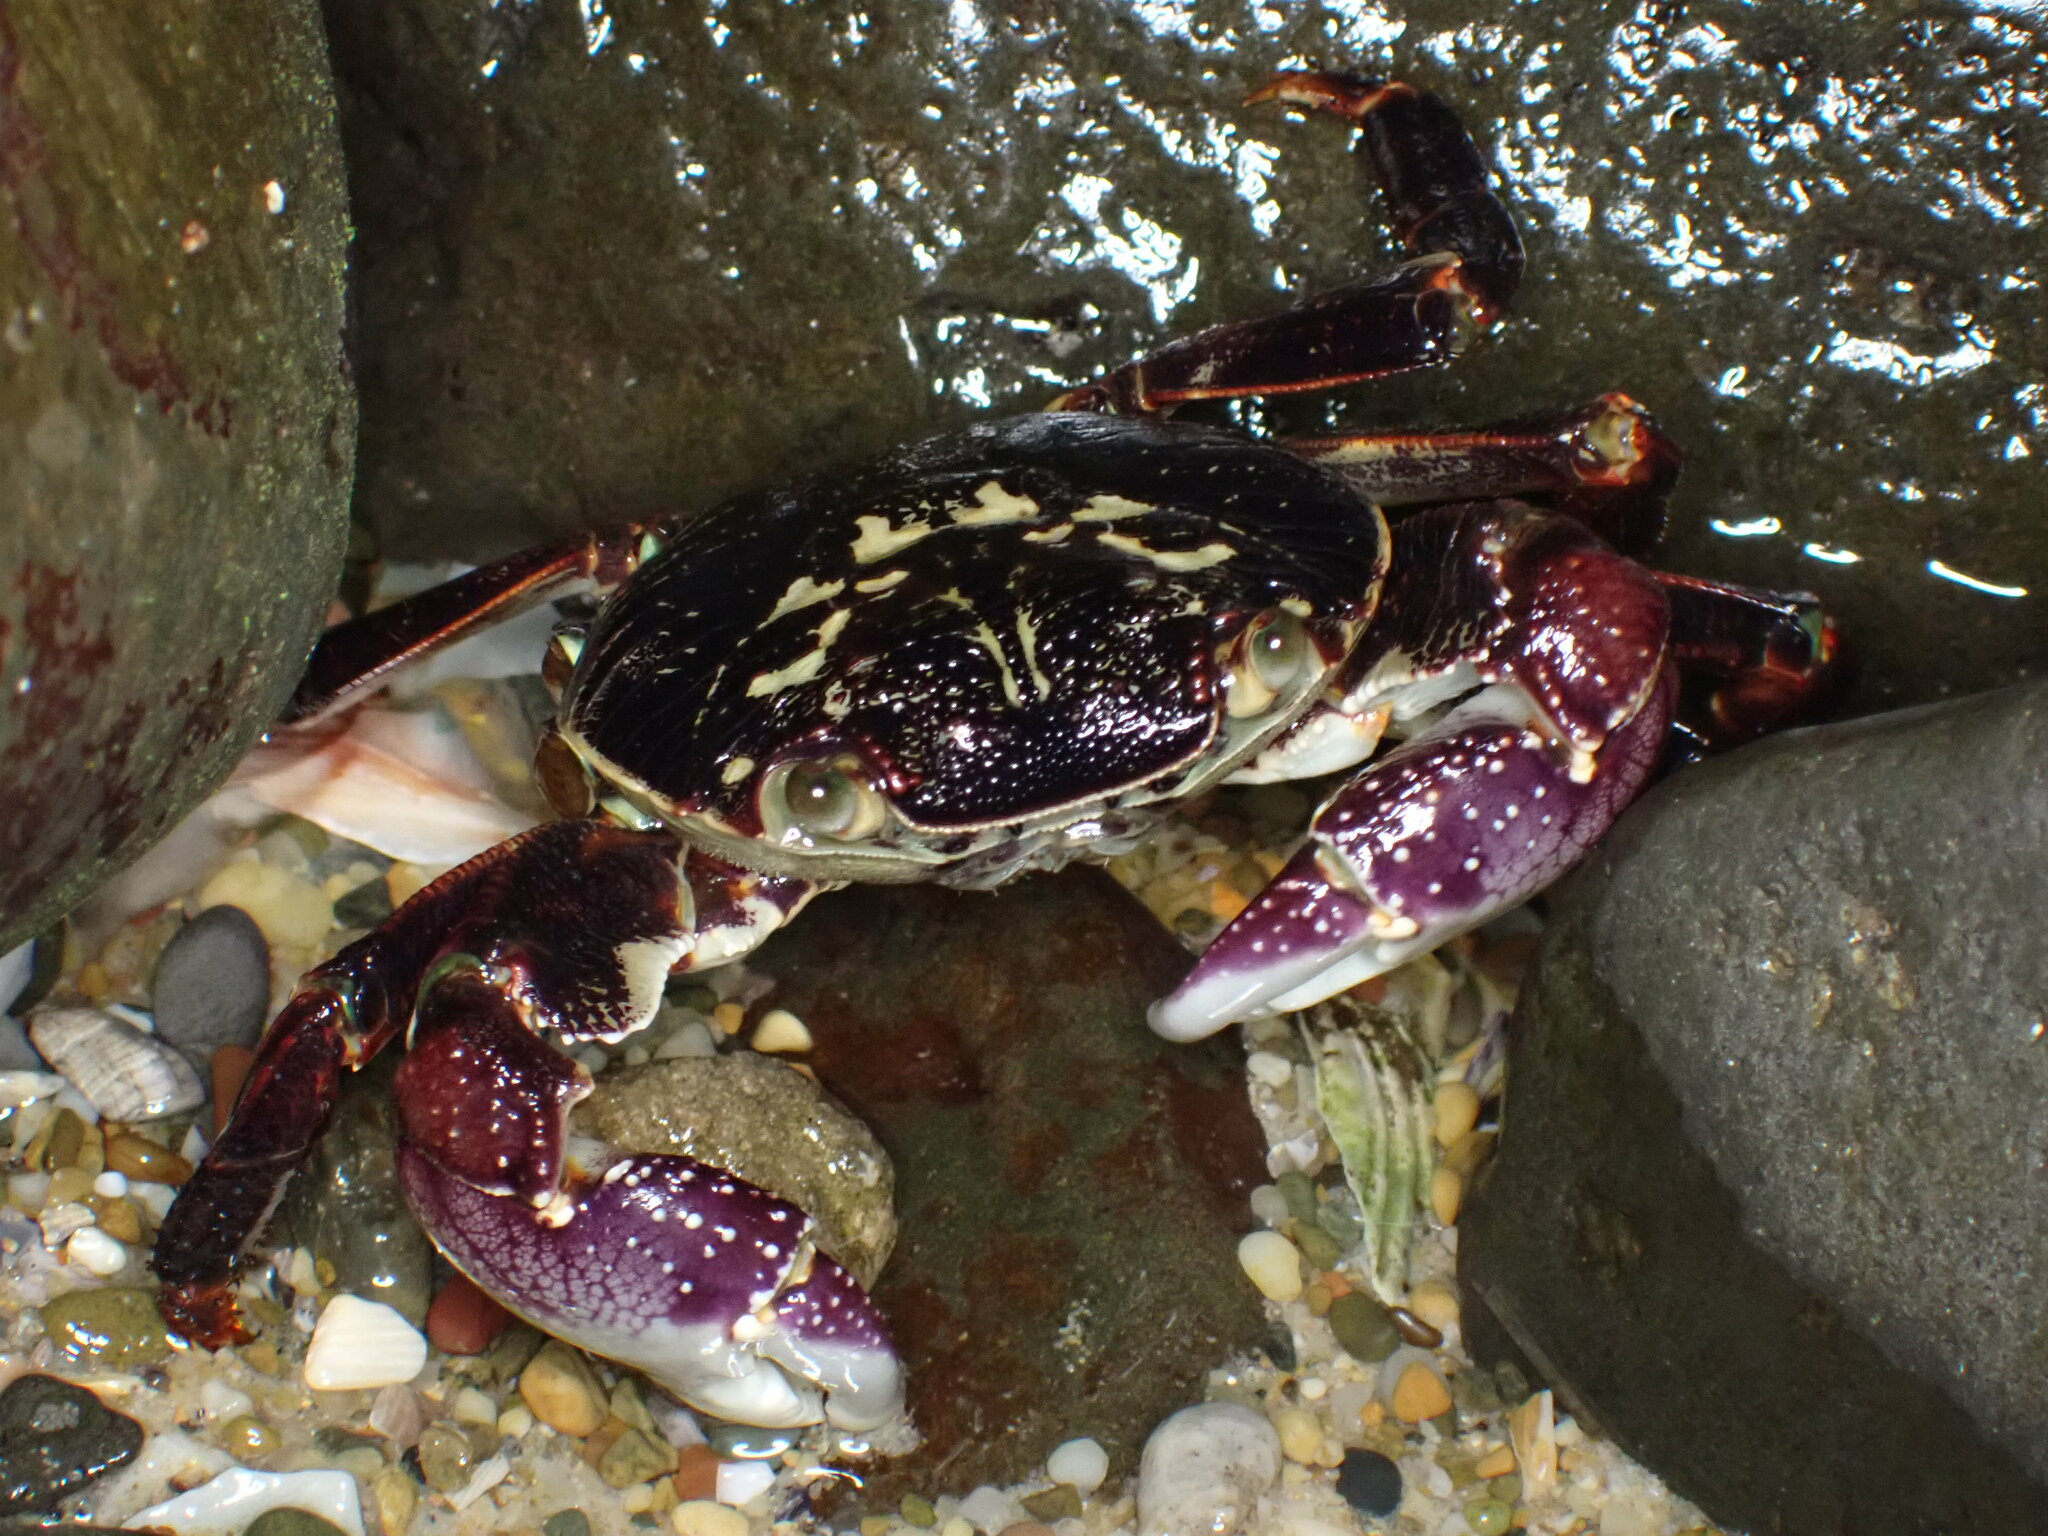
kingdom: Animalia
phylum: Arthropoda
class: Malacostraca
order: Decapoda
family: Grapsidae
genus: Leptograpsus
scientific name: Leptograpsus variegatus
